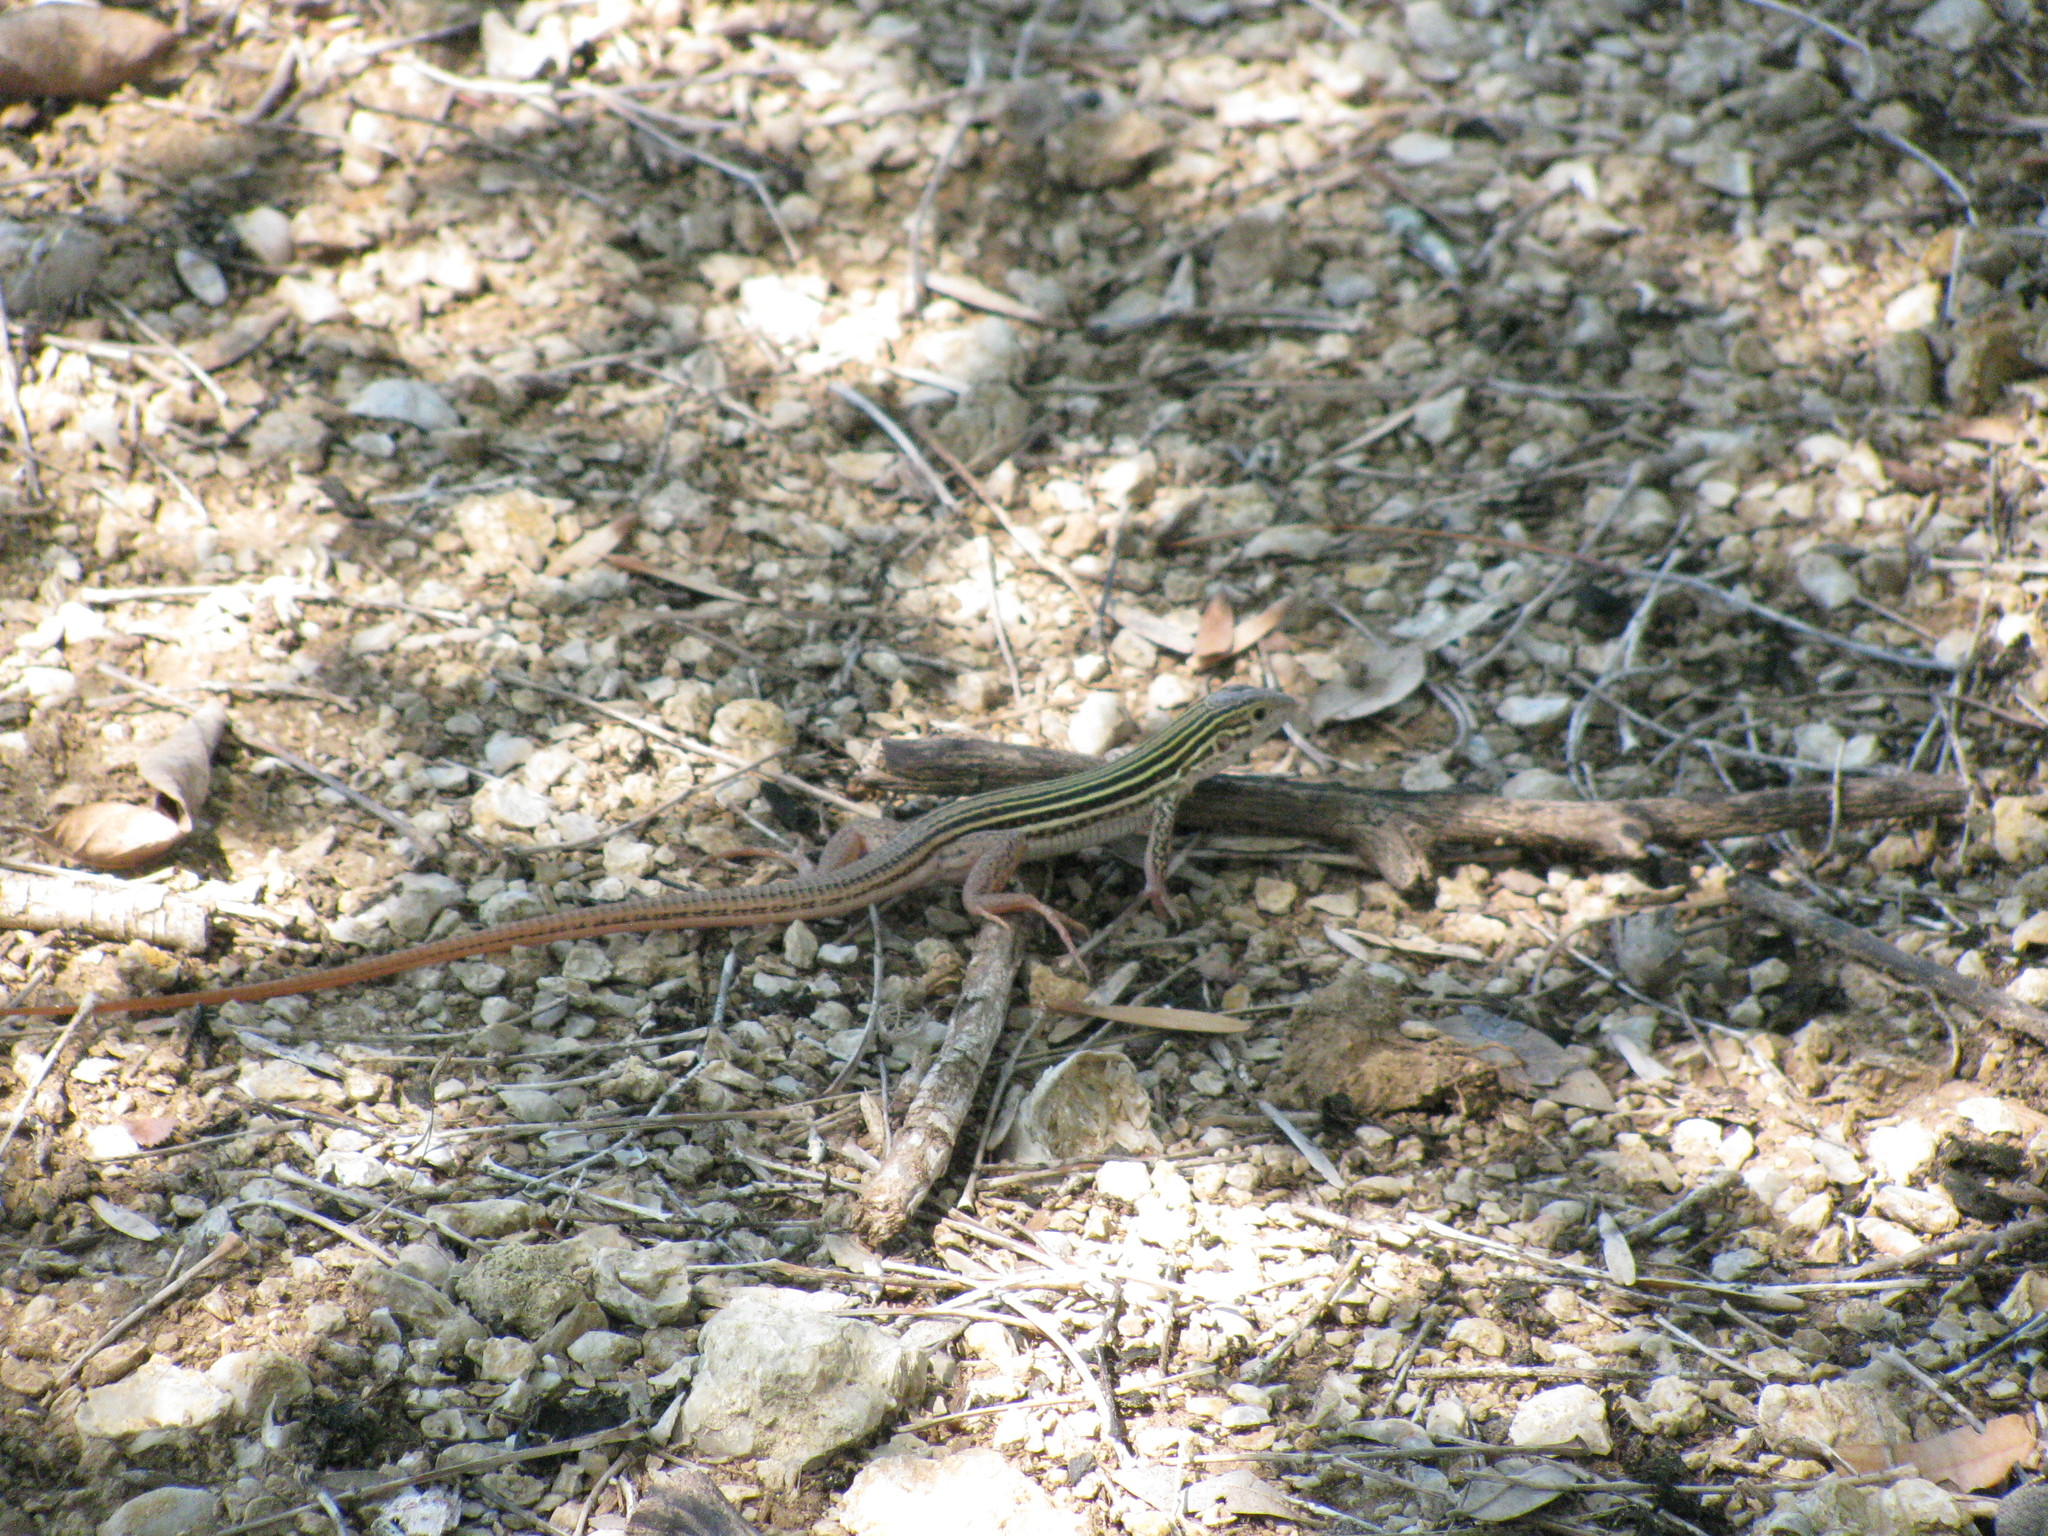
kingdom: Animalia
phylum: Chordata
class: Squamata
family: Teiidae
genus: Aspidoscelis
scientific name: Aspidoscelis gularis
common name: Eastern spotted whiptail
